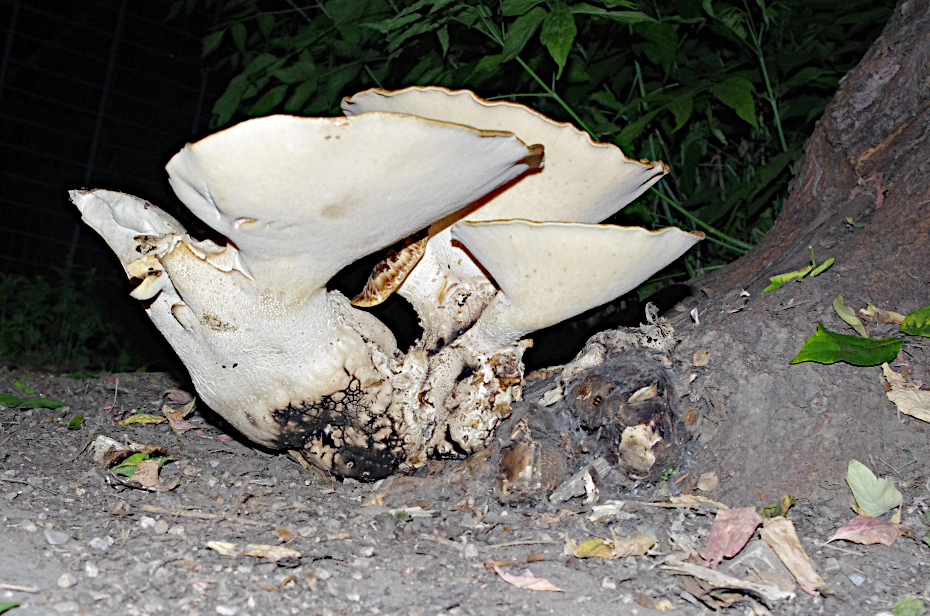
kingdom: Fungi
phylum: Basidiomycota
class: Agaricomycetes
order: Polyporales
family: Polyporaceae
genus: Cerioporus
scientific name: Cerioporus squamosus
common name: Dryad's saddle
